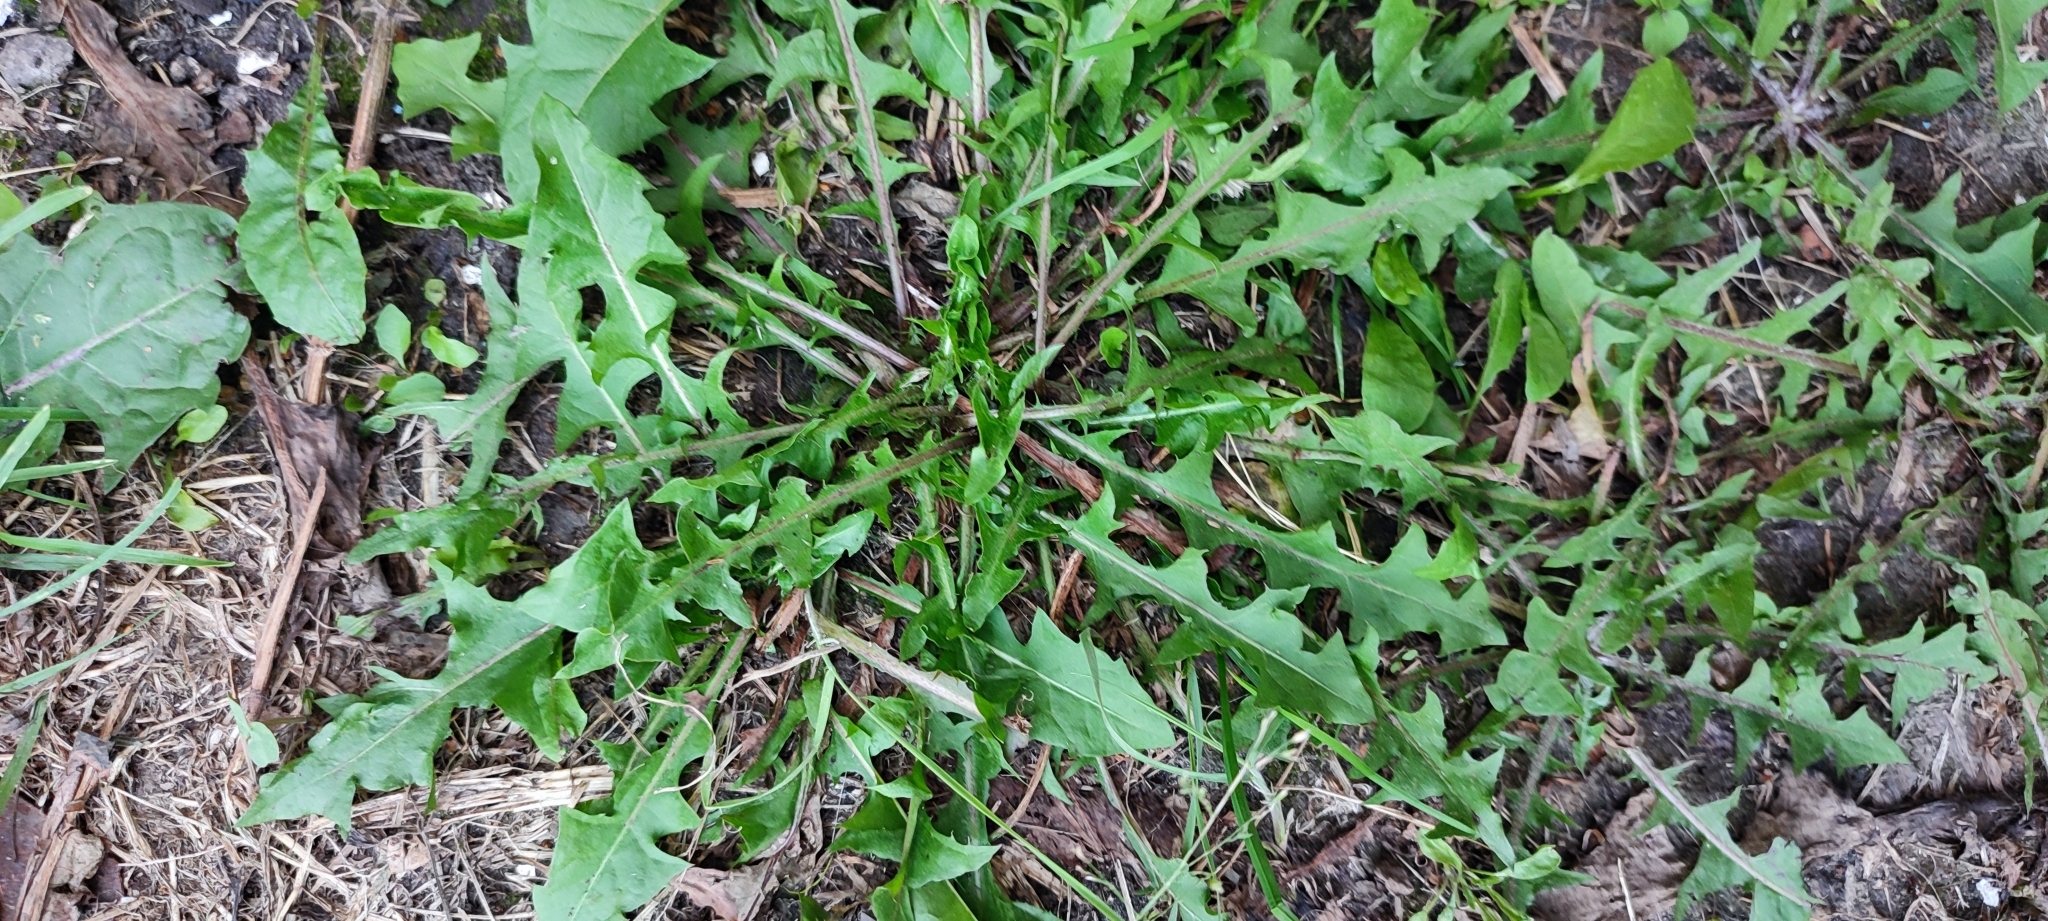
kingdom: Plantae
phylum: Tracheophyta
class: Magnoliopsida
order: Asterales
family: Asteraceae
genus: Taraxacum
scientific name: Taraxacum officinale
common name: Common dandelion
